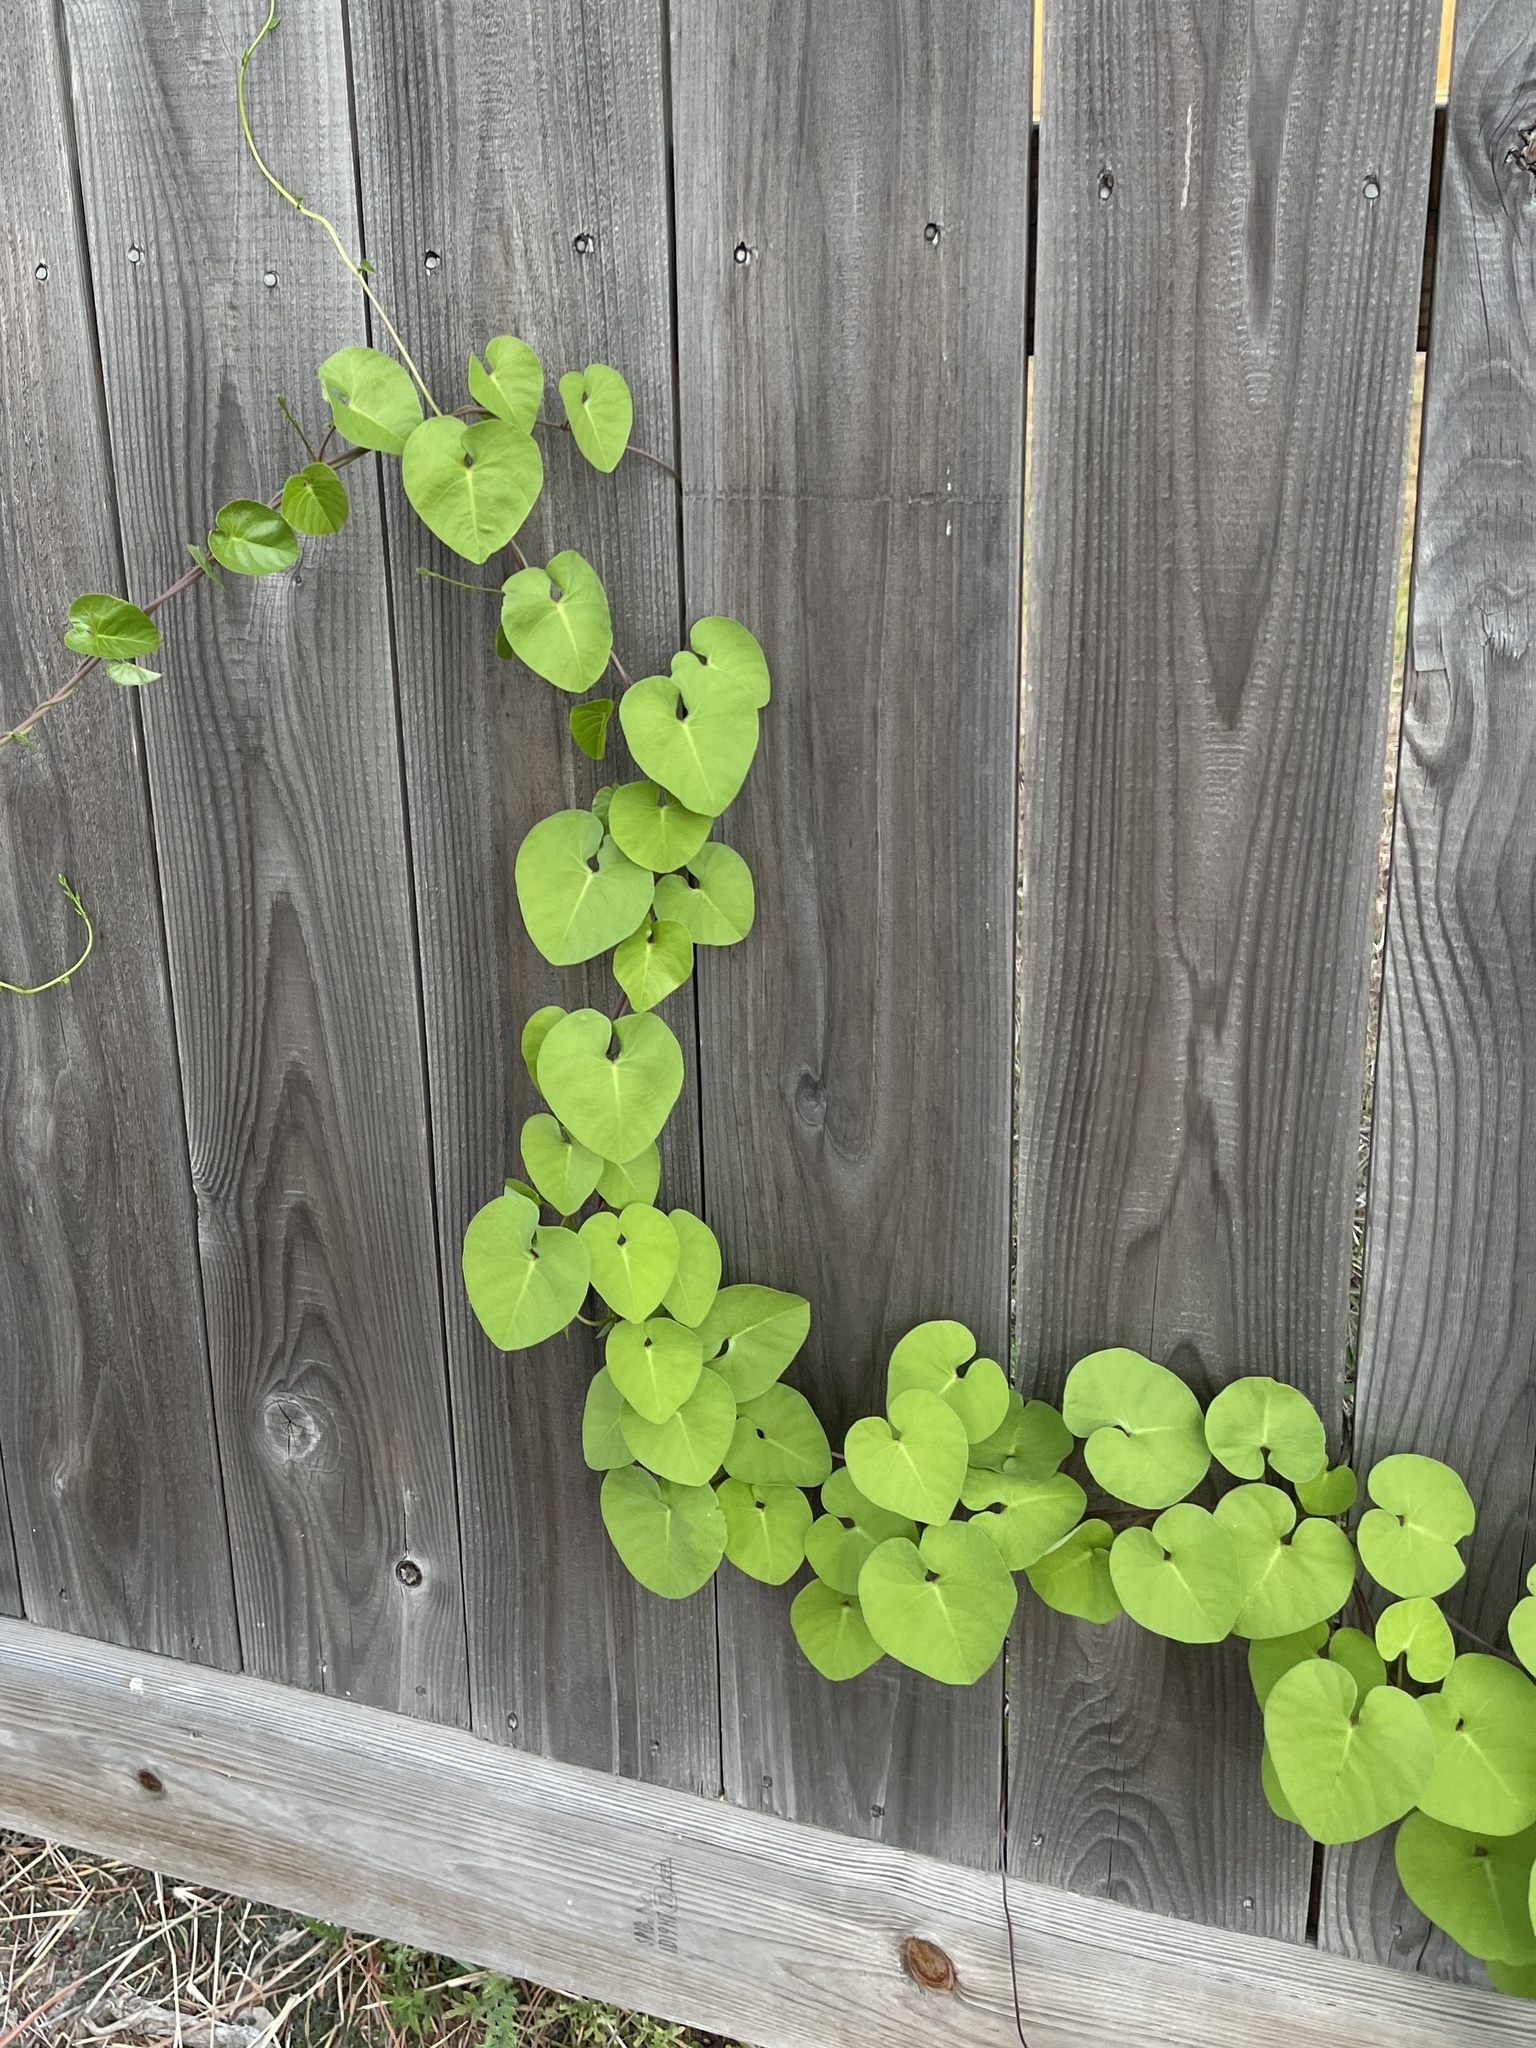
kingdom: Plantae
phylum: Tracheophyta
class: Magnoliopsida
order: Solanales
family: Convolvulaceae
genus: Ipomoea
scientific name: Ipomoea amnicola
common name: Redcenter morning-glory
